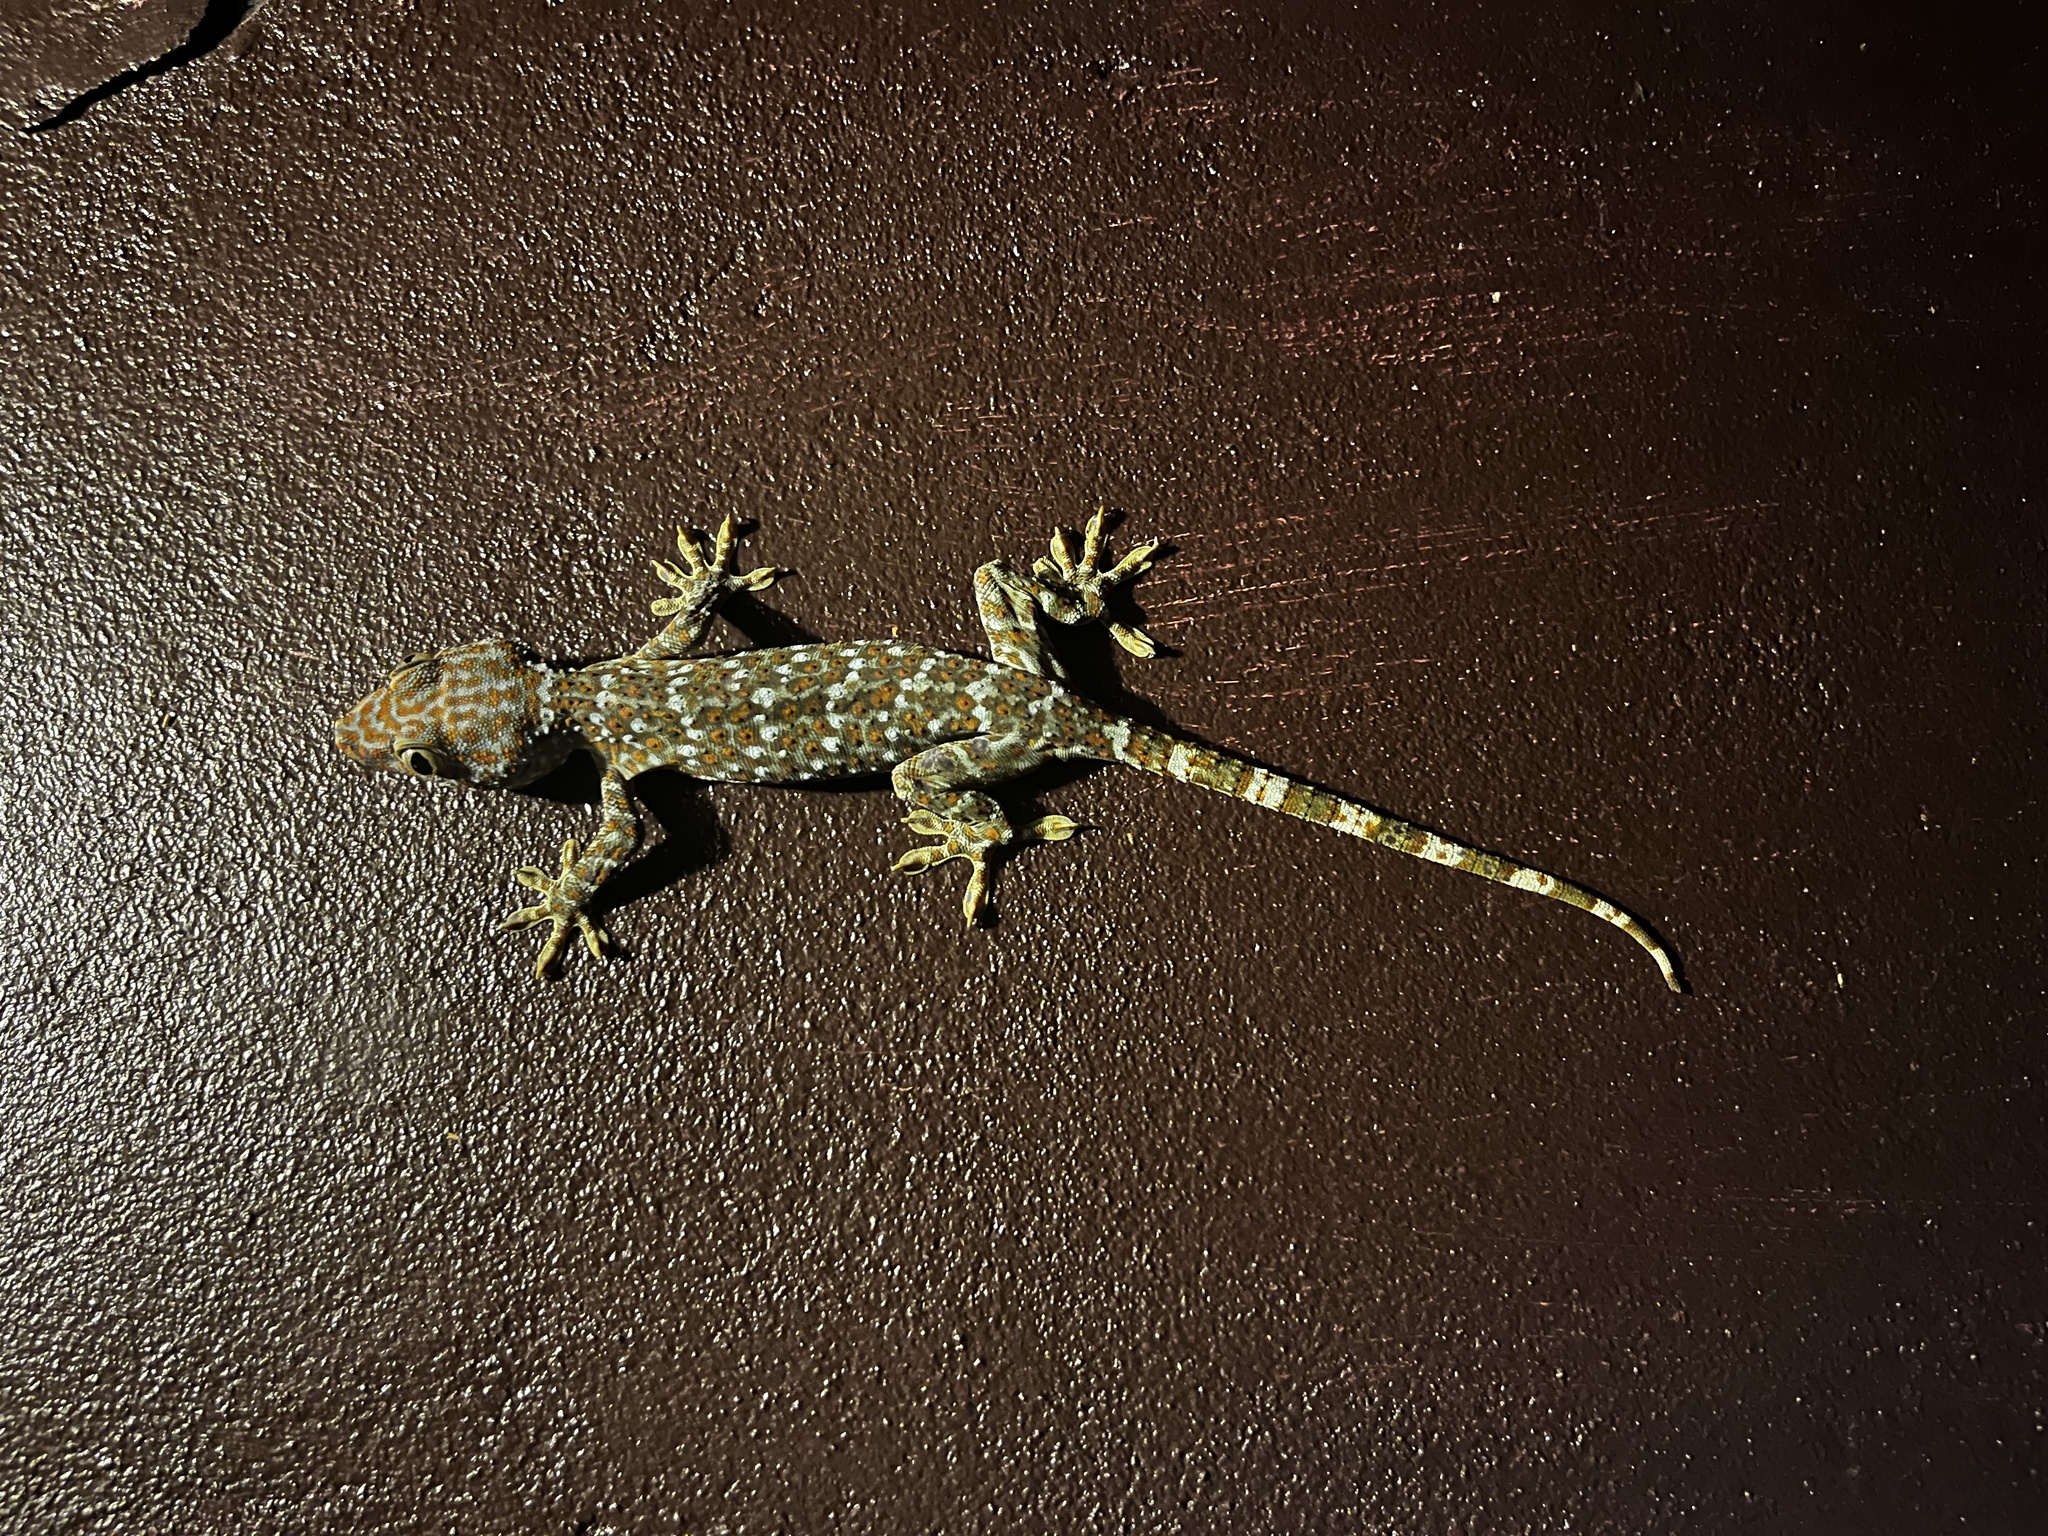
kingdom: Animalia
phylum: Chordata
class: Squamata
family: Gekkonidae
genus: Gekko
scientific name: Gekko gecko
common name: Tokay gecko
